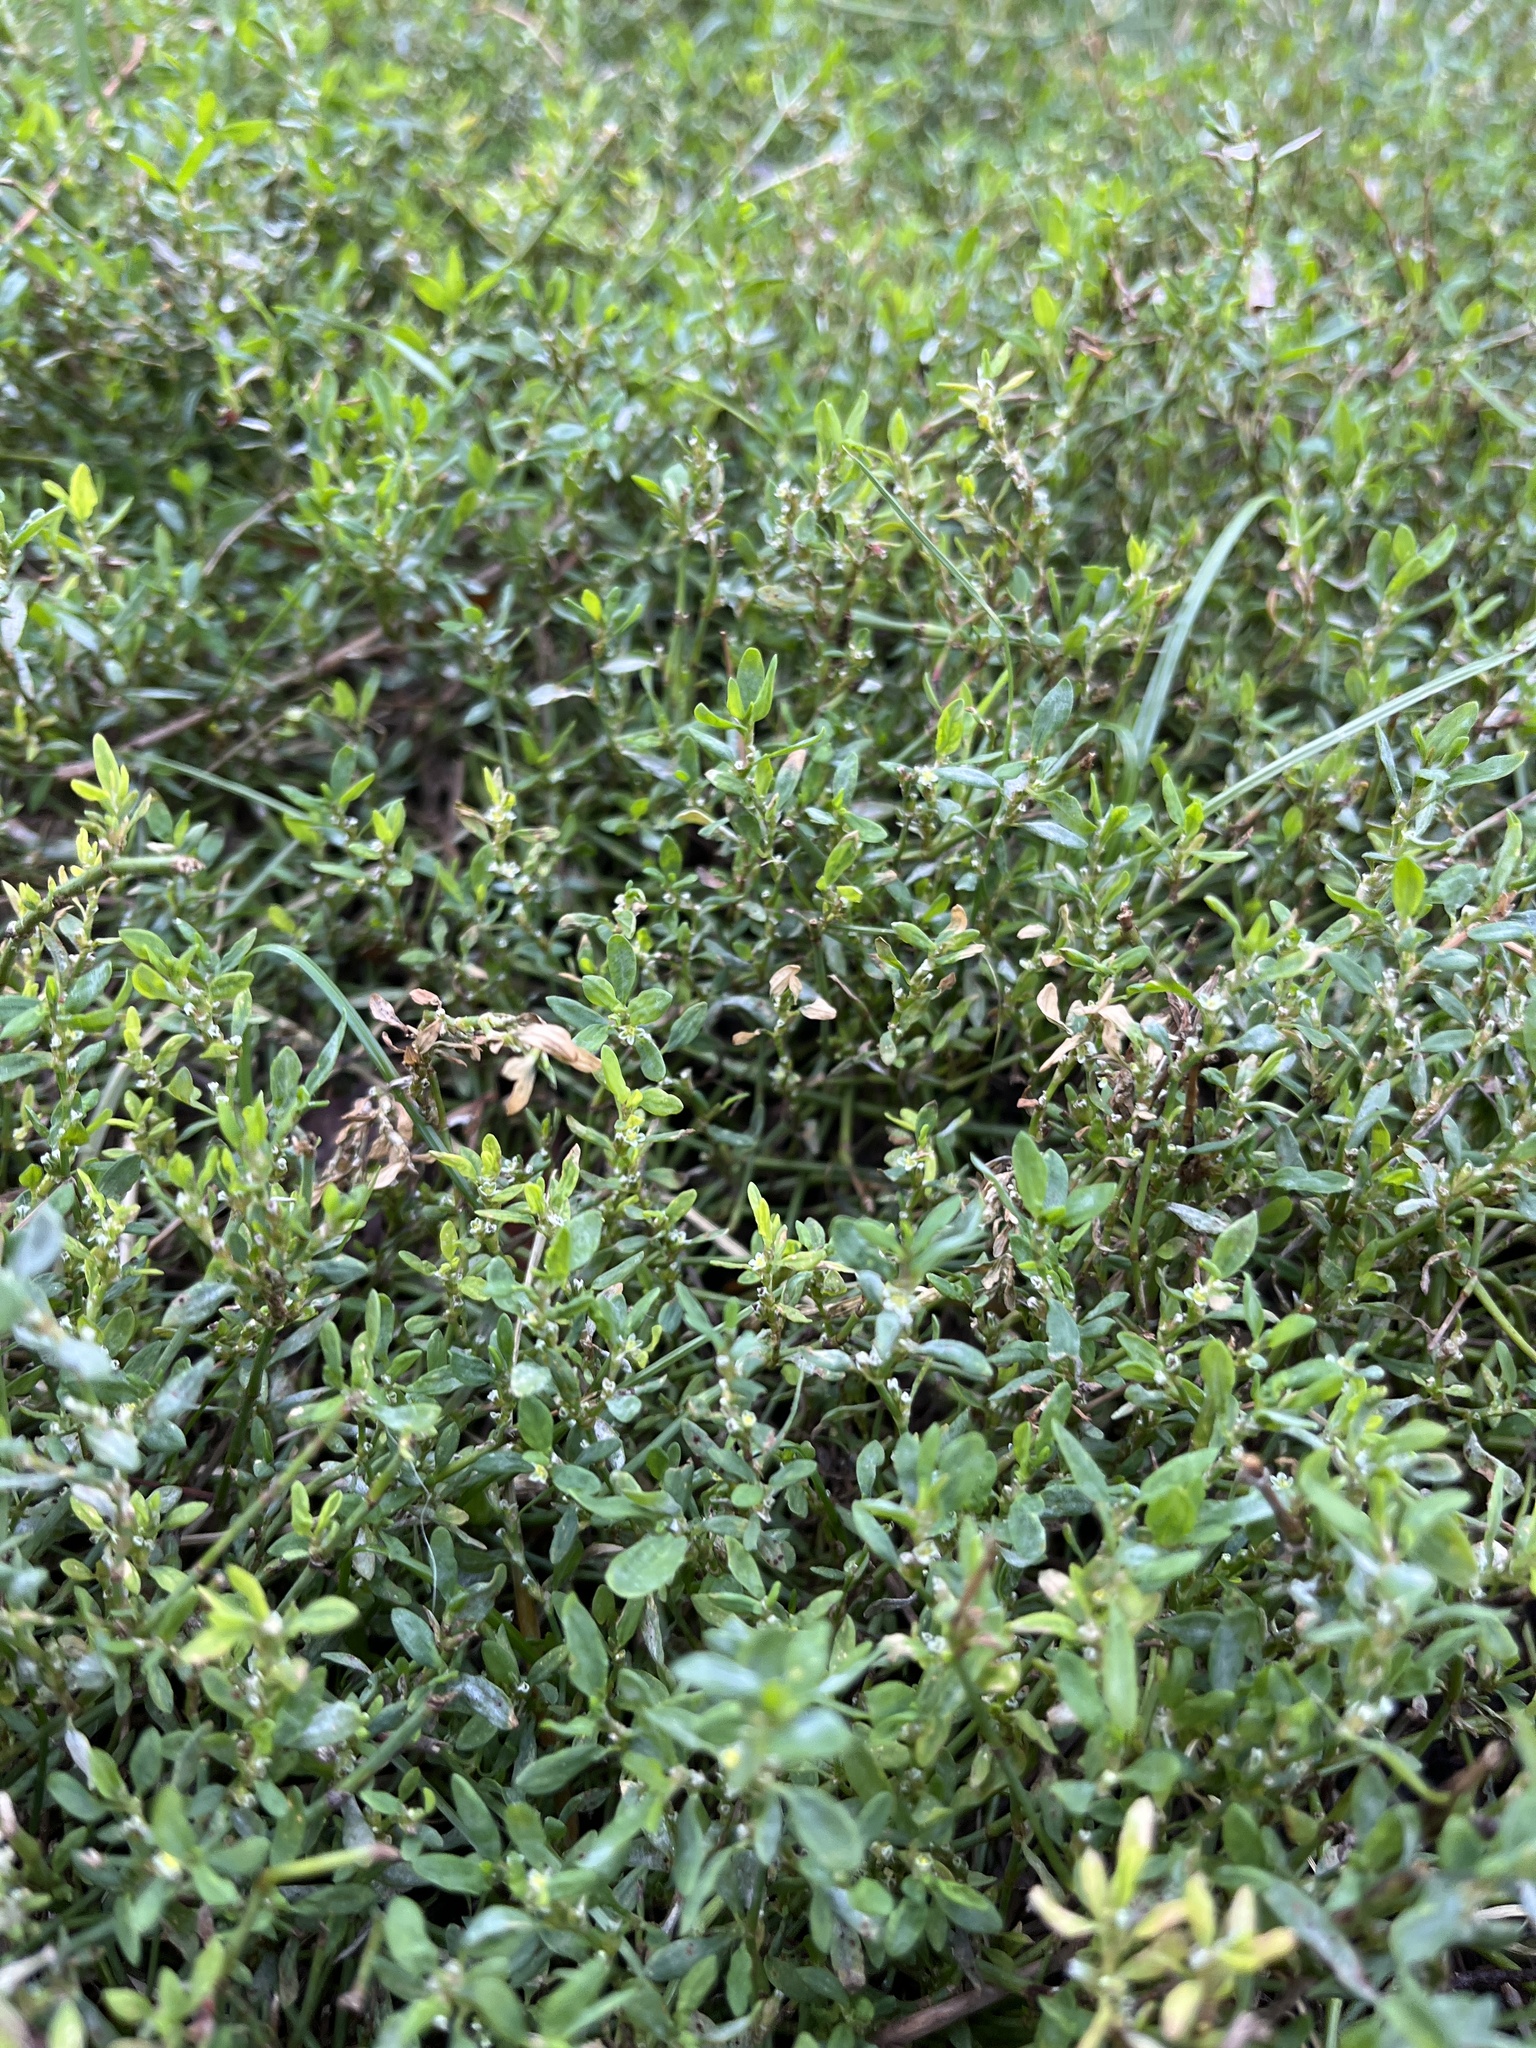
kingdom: Plantae
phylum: Tracheophyta
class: Magnoliopsida
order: Caryophyllales
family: Polygonaceae
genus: Polygonum
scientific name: Polygonum aviculare
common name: Prostrate knotweed
